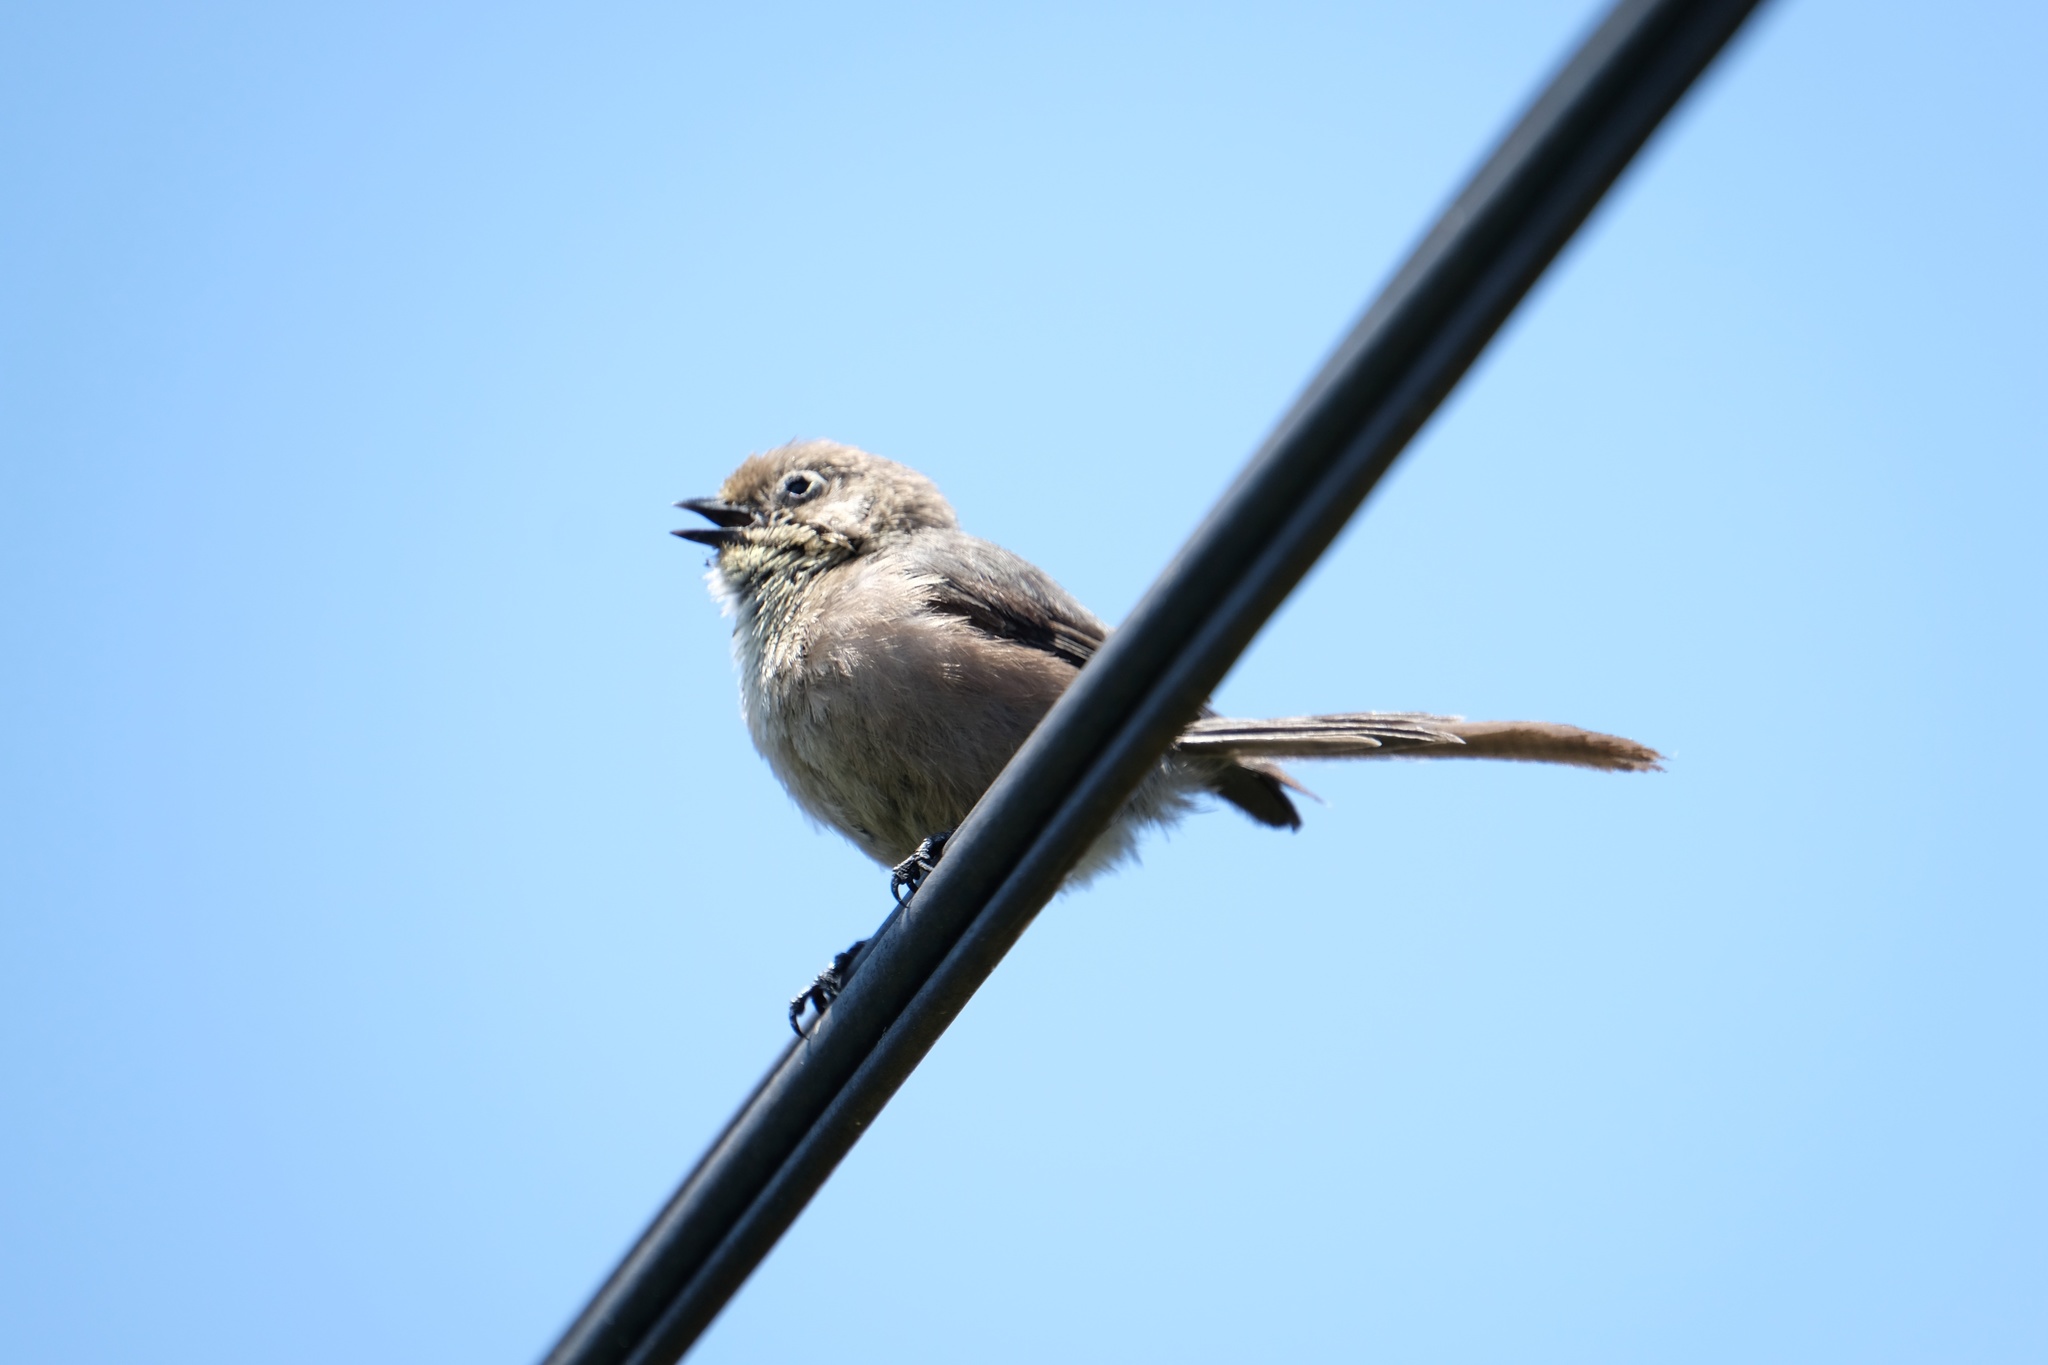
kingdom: Animalia
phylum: Chordata
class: Aves
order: Passeriformes
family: Aegithalidae
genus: Psaltriparus
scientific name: Psaltriparus minimus
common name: American bushtit
